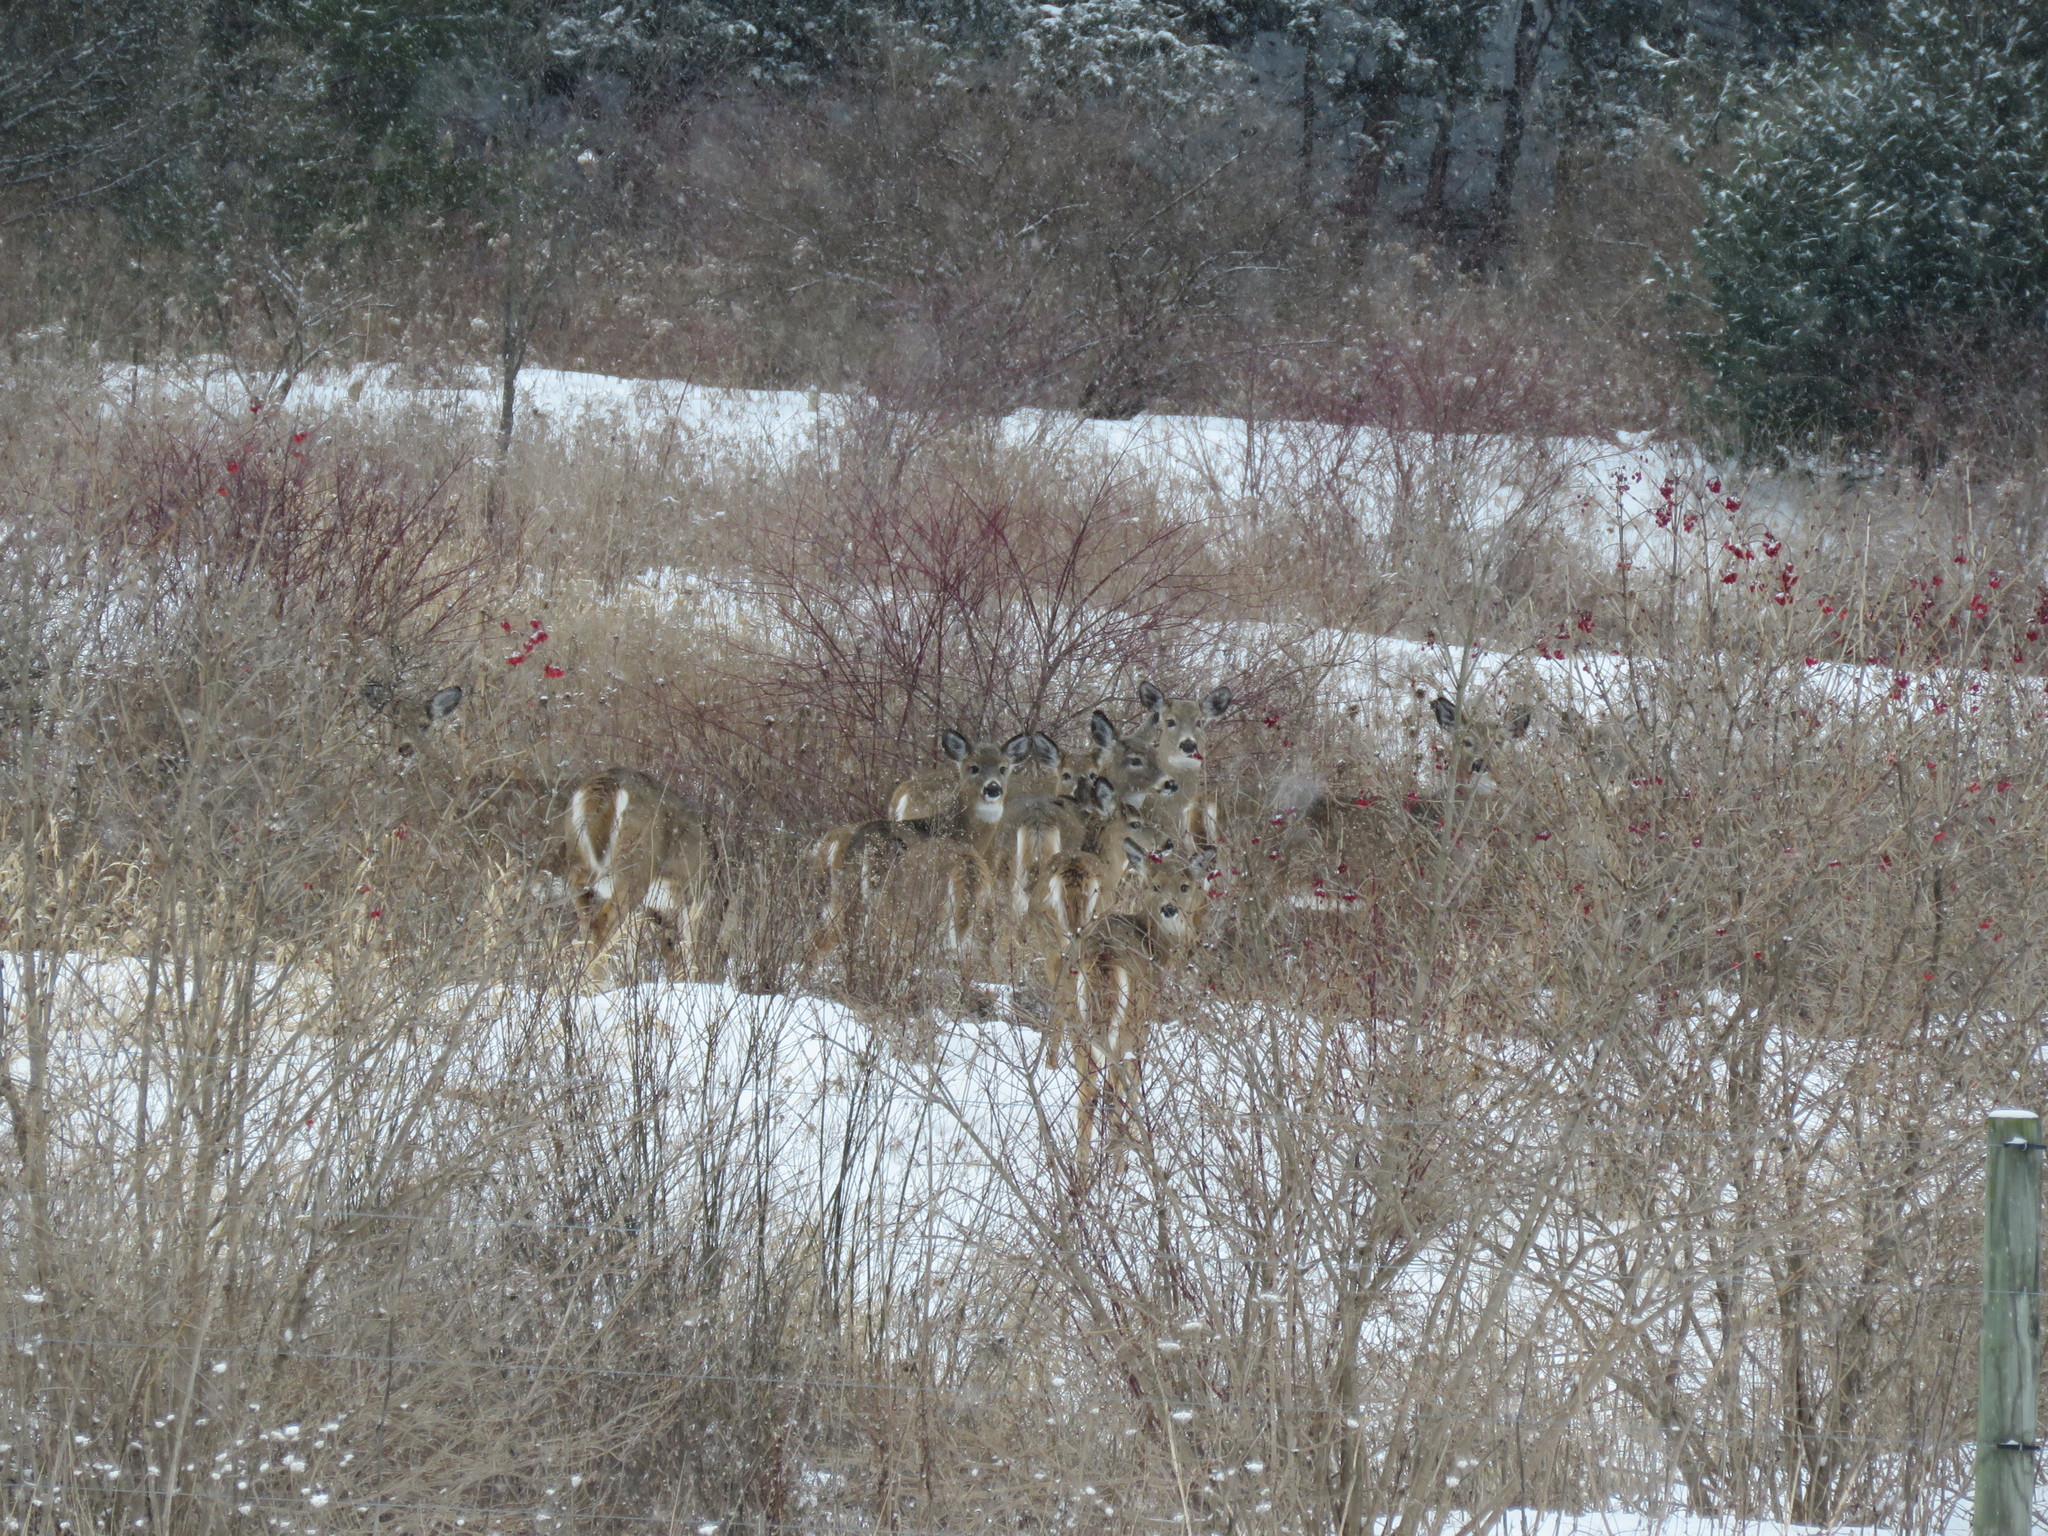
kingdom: Animalia
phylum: Chordata
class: Mammalia
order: Artiodactyla
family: Cervidae
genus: Odocoileus
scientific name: Odocoileus virginianus
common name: White-tailed deer
